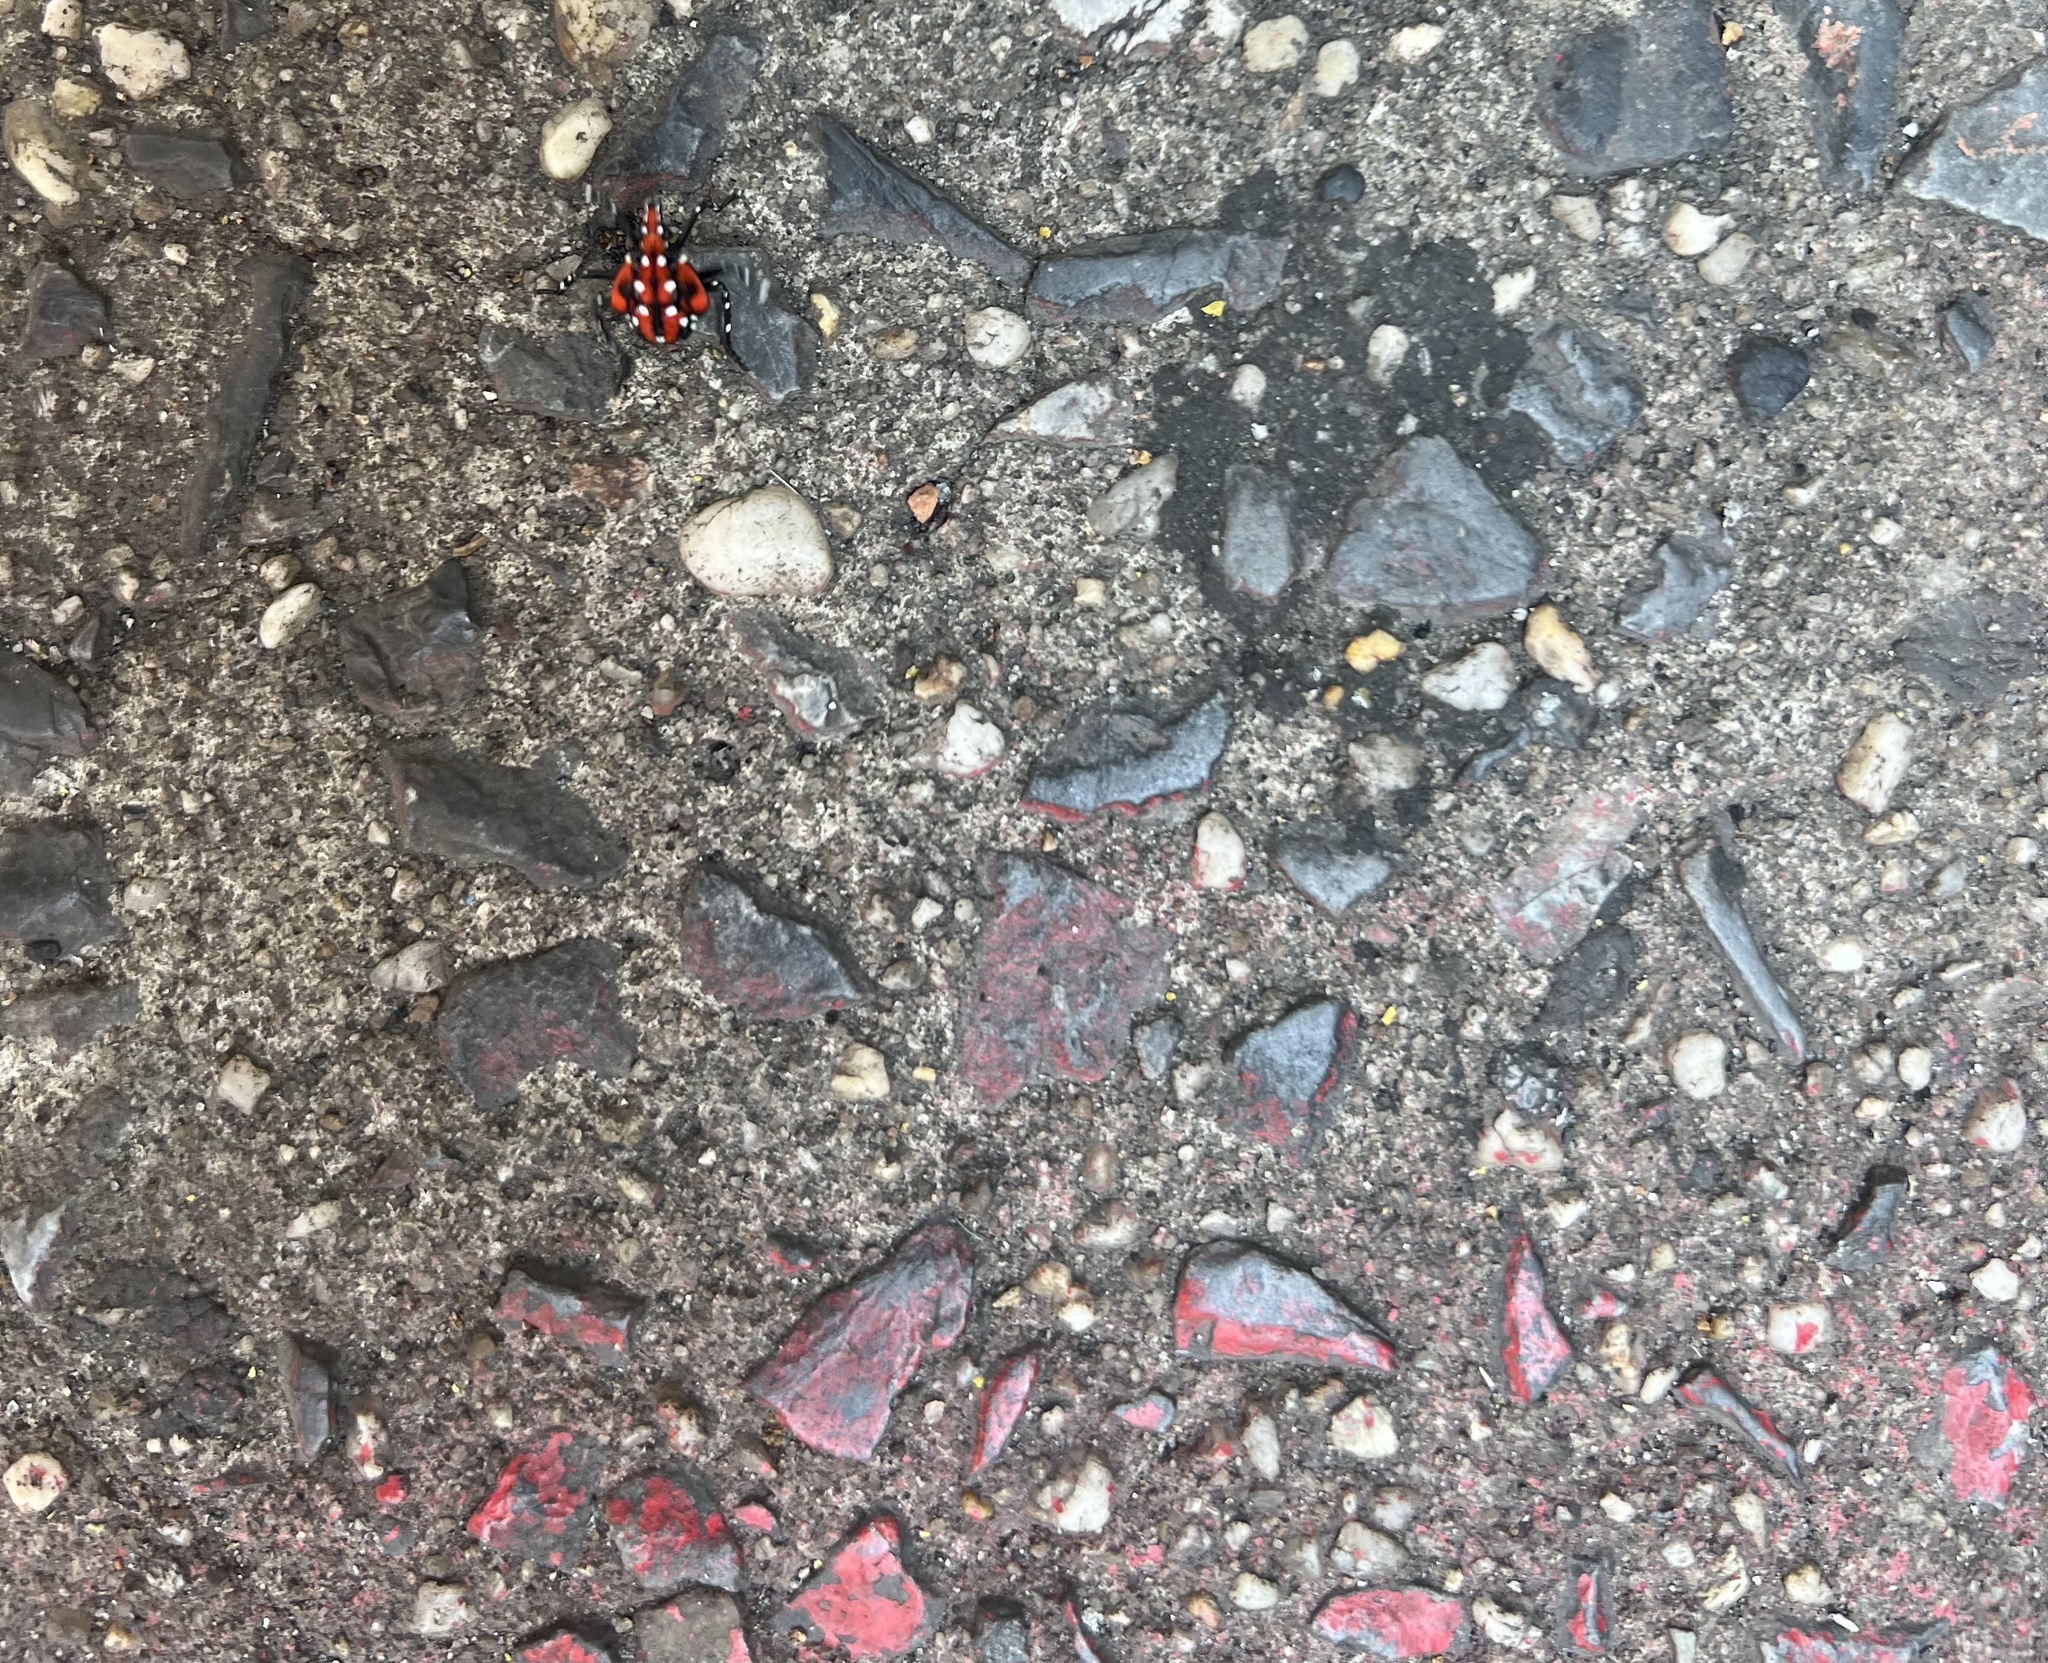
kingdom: Animalia
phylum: Arthropoda
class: Insecta
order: Hemiptera
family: Fulgoridae
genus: Lycorma
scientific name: Lycorma delicatula
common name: Spotted lanternfly
